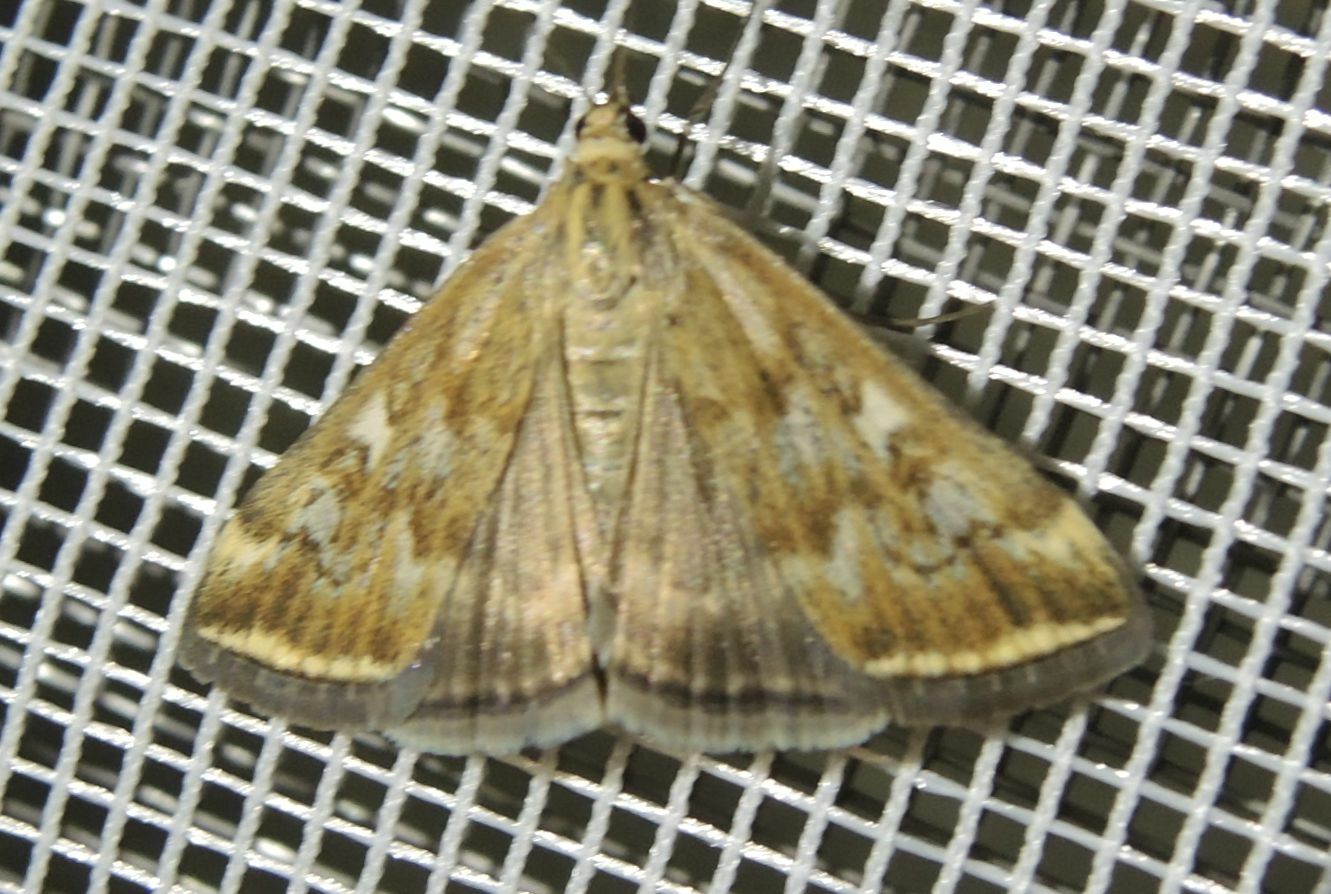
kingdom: Animalia
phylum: Arthropoda
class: Insecta
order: Lepidoptera
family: Crambidae
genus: Loxostege
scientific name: Loxostege sticticalis
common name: Crambid moth
